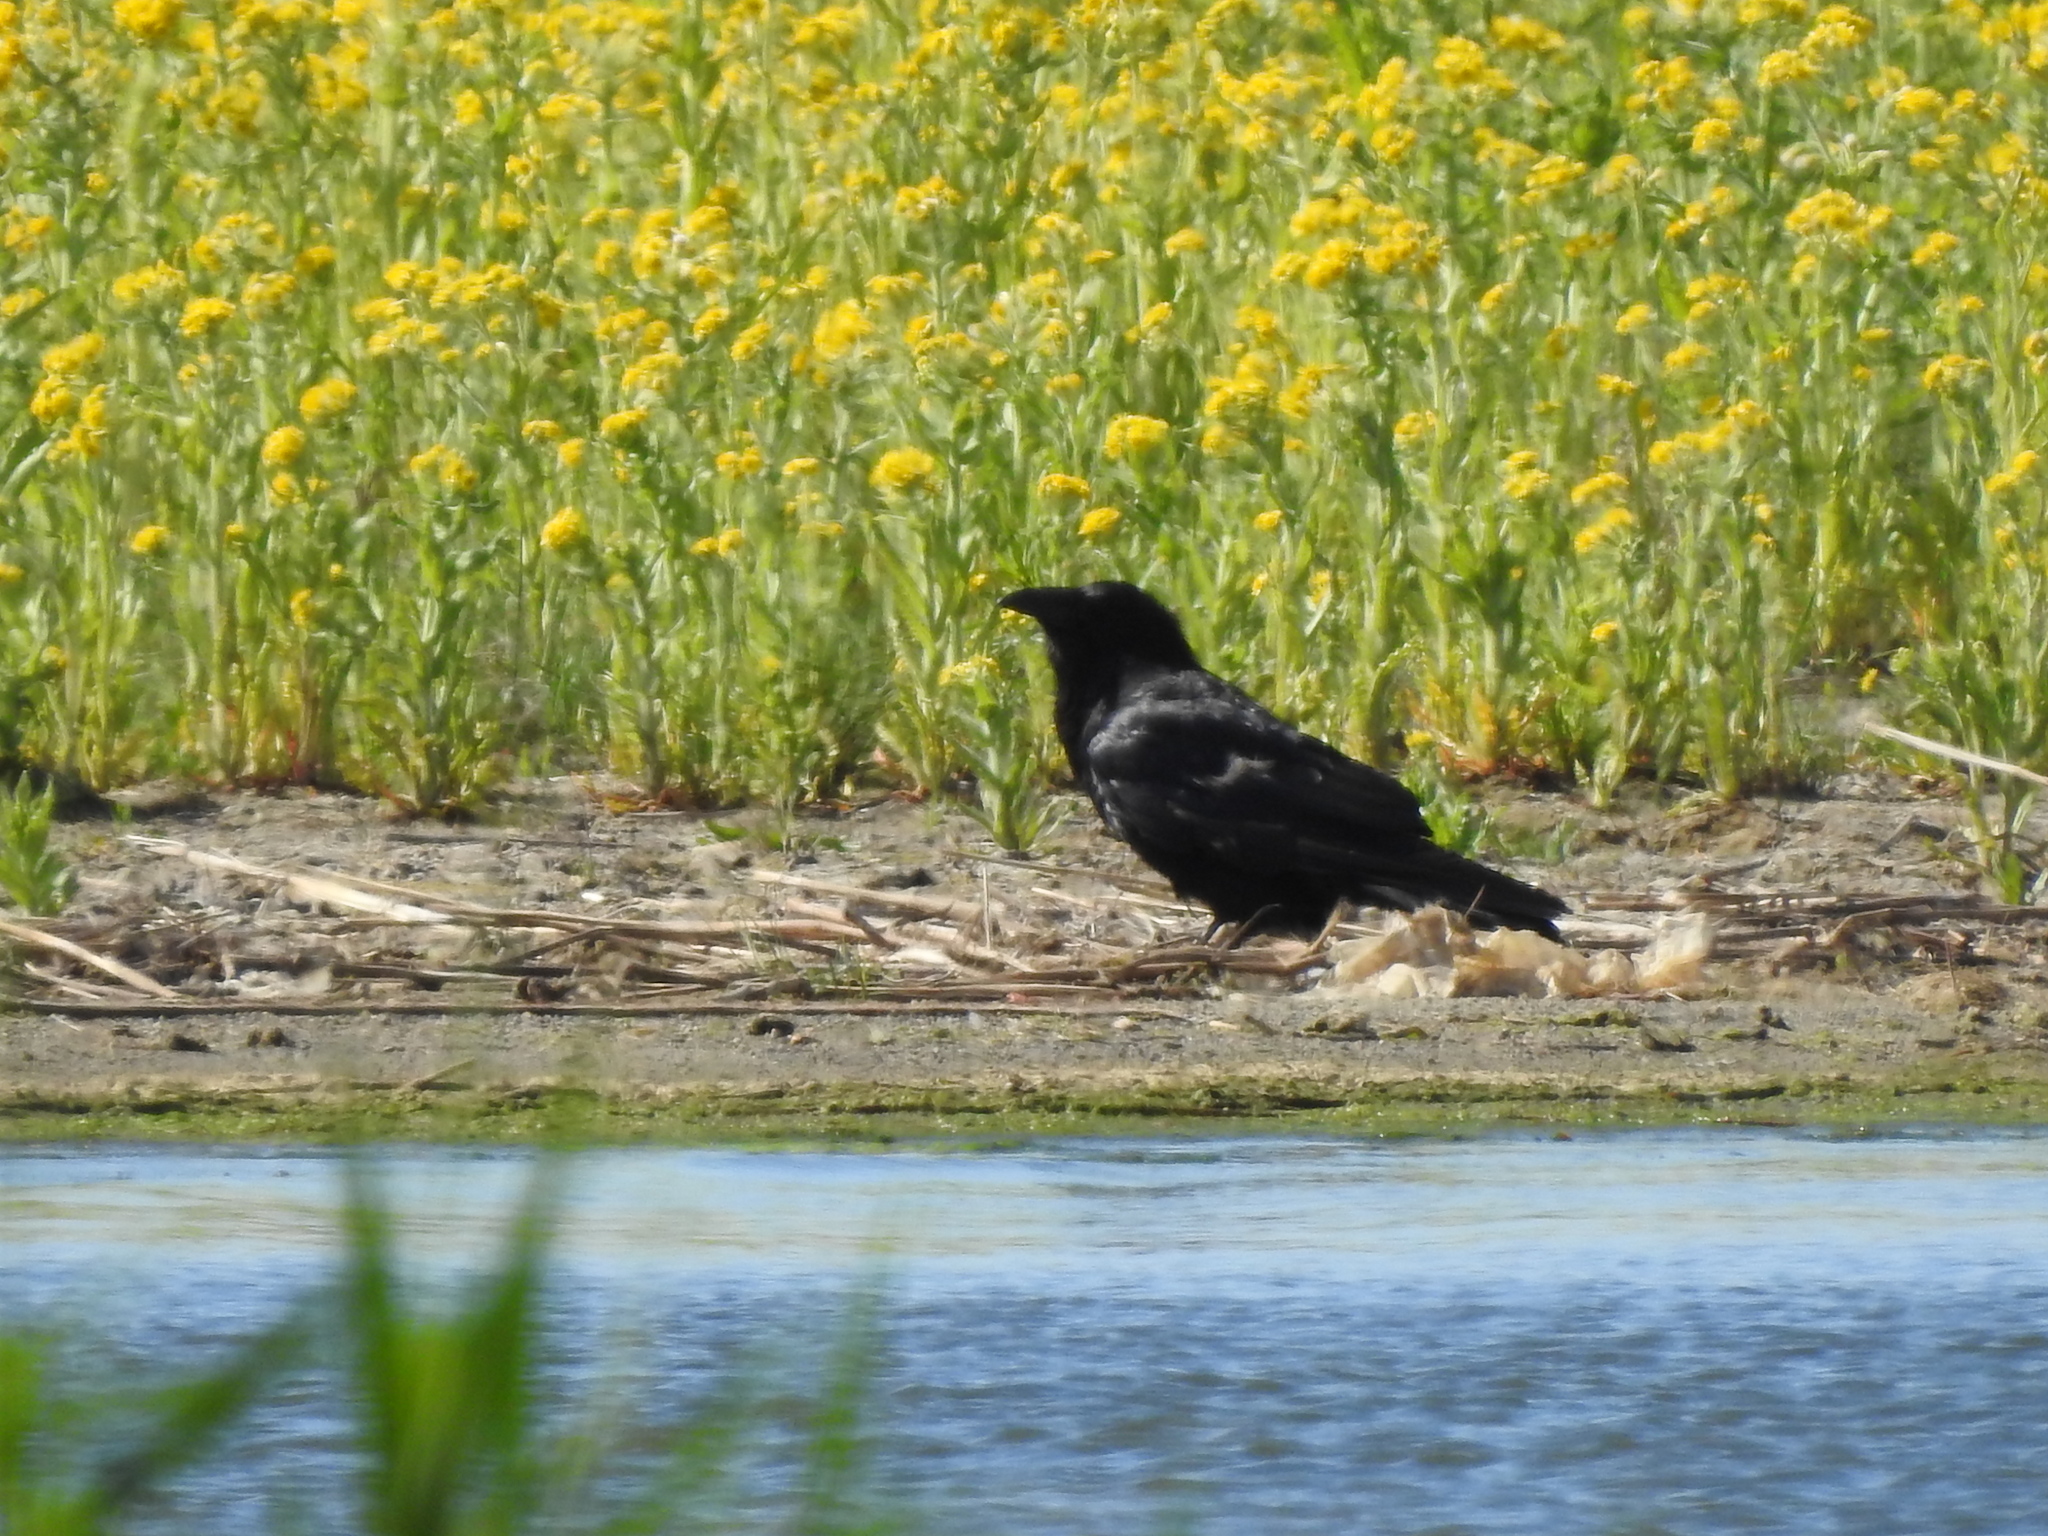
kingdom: Animalia
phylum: Chordata
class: Aves
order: Passeriformes
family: Corvidae
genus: Corvus
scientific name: Corvus corax
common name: Common raven
